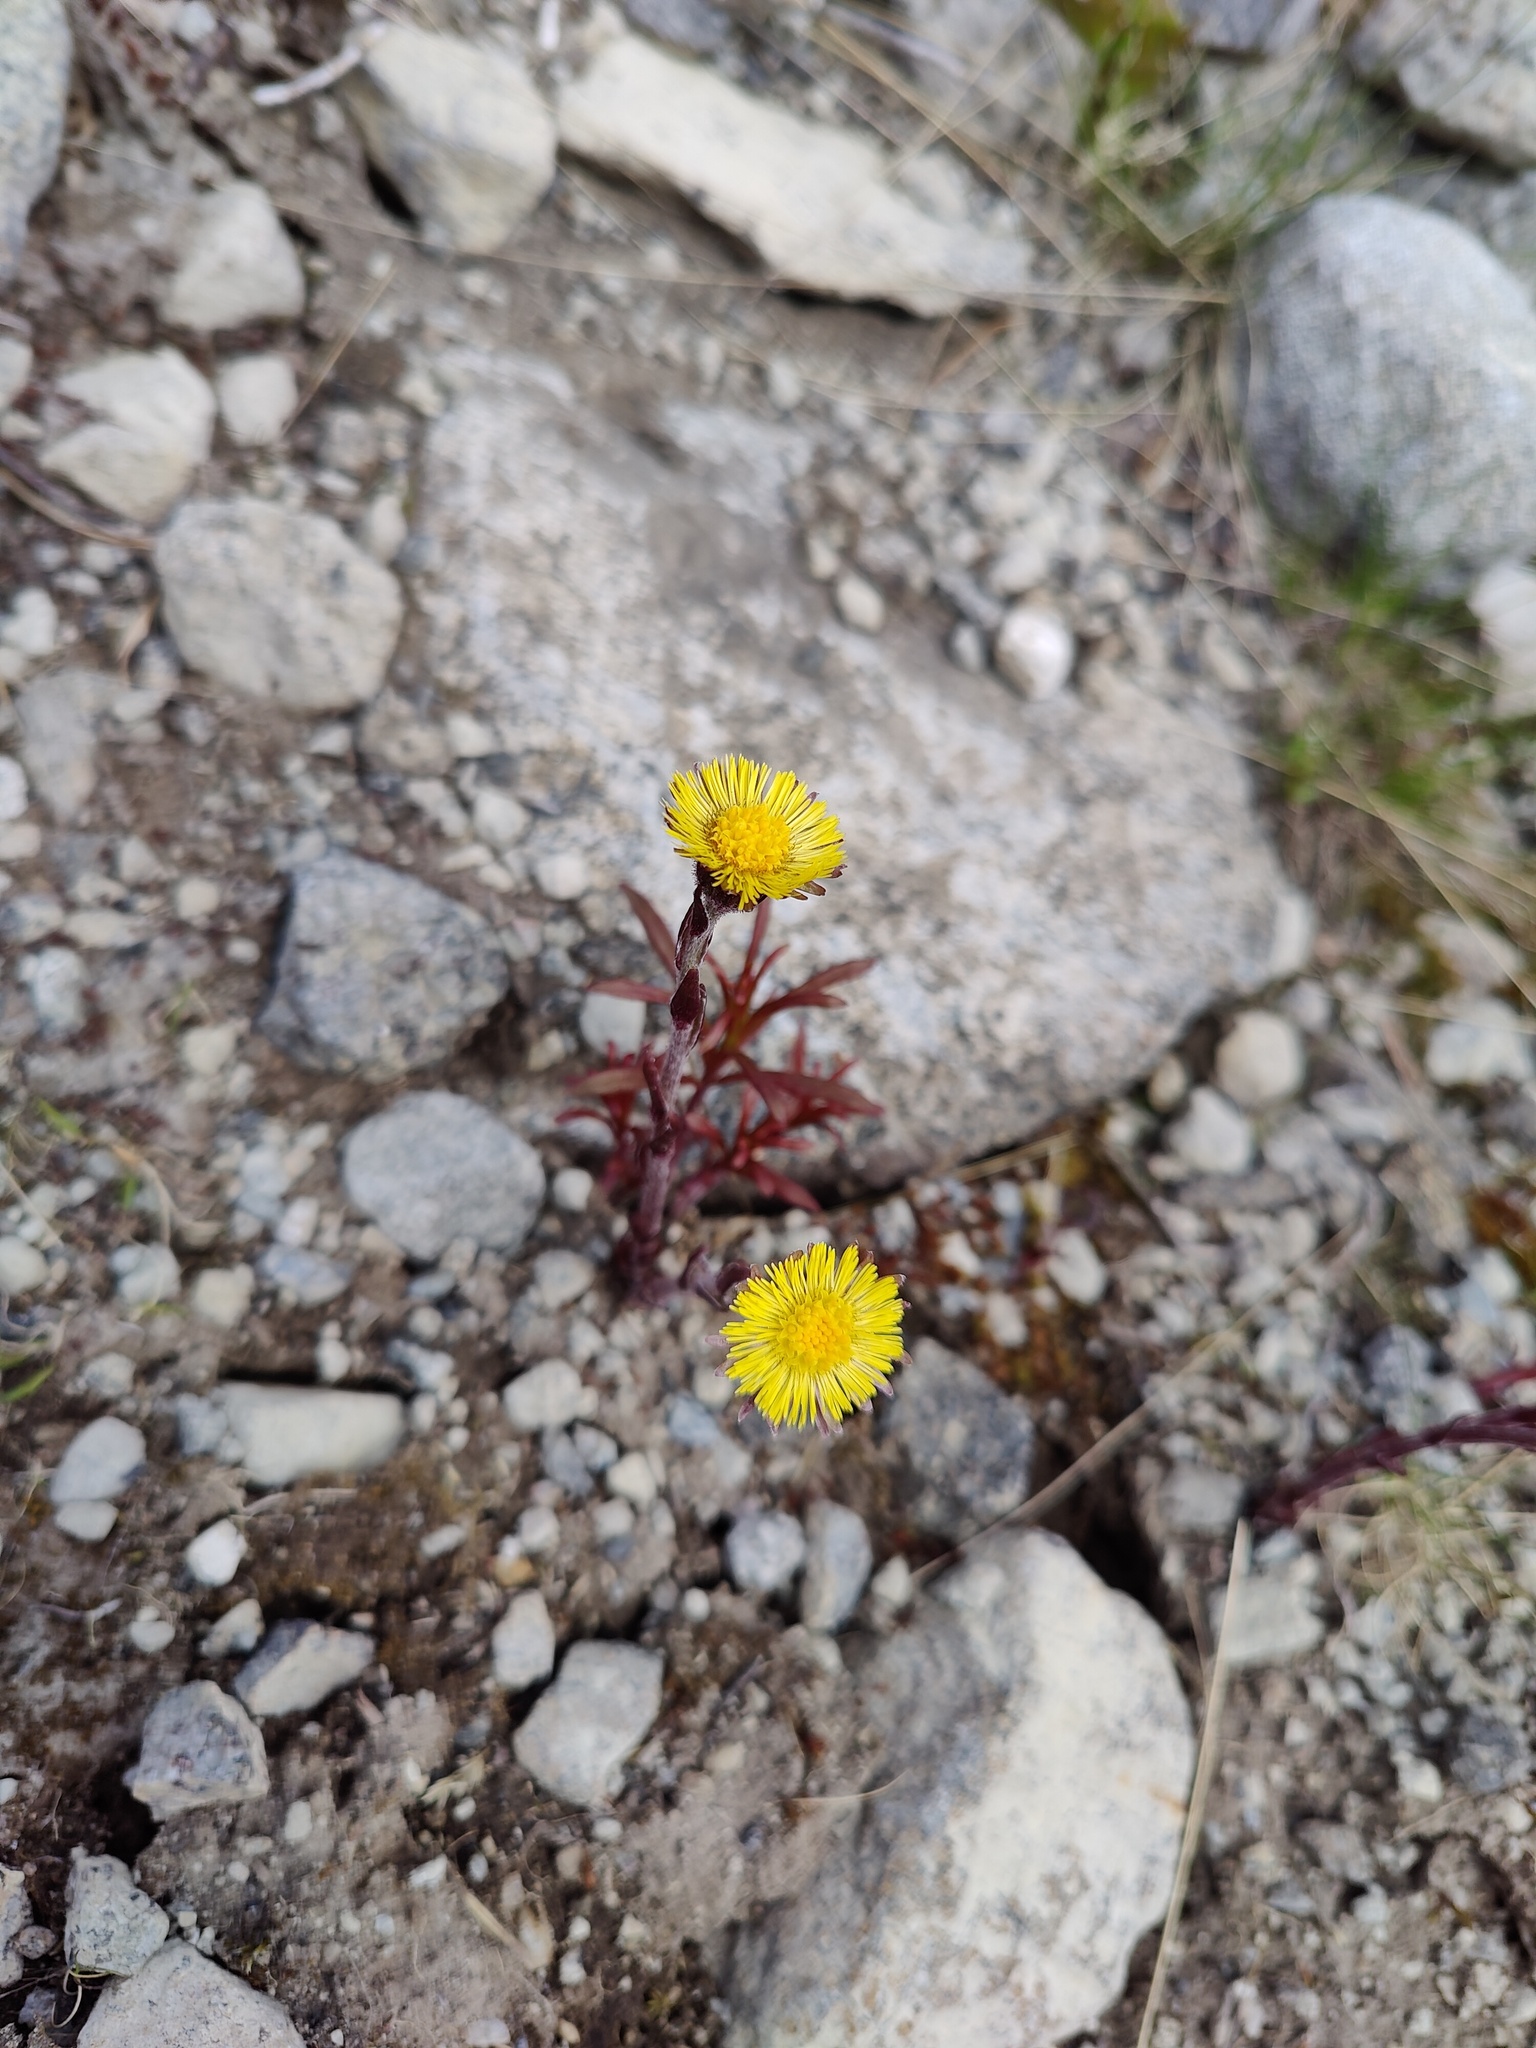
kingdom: Plantae
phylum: Tracheophyta
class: Magnoliopsida
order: Asterales
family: Asteraceae
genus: Tussilago
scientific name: Tussilago farfara
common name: Coltsfoot
